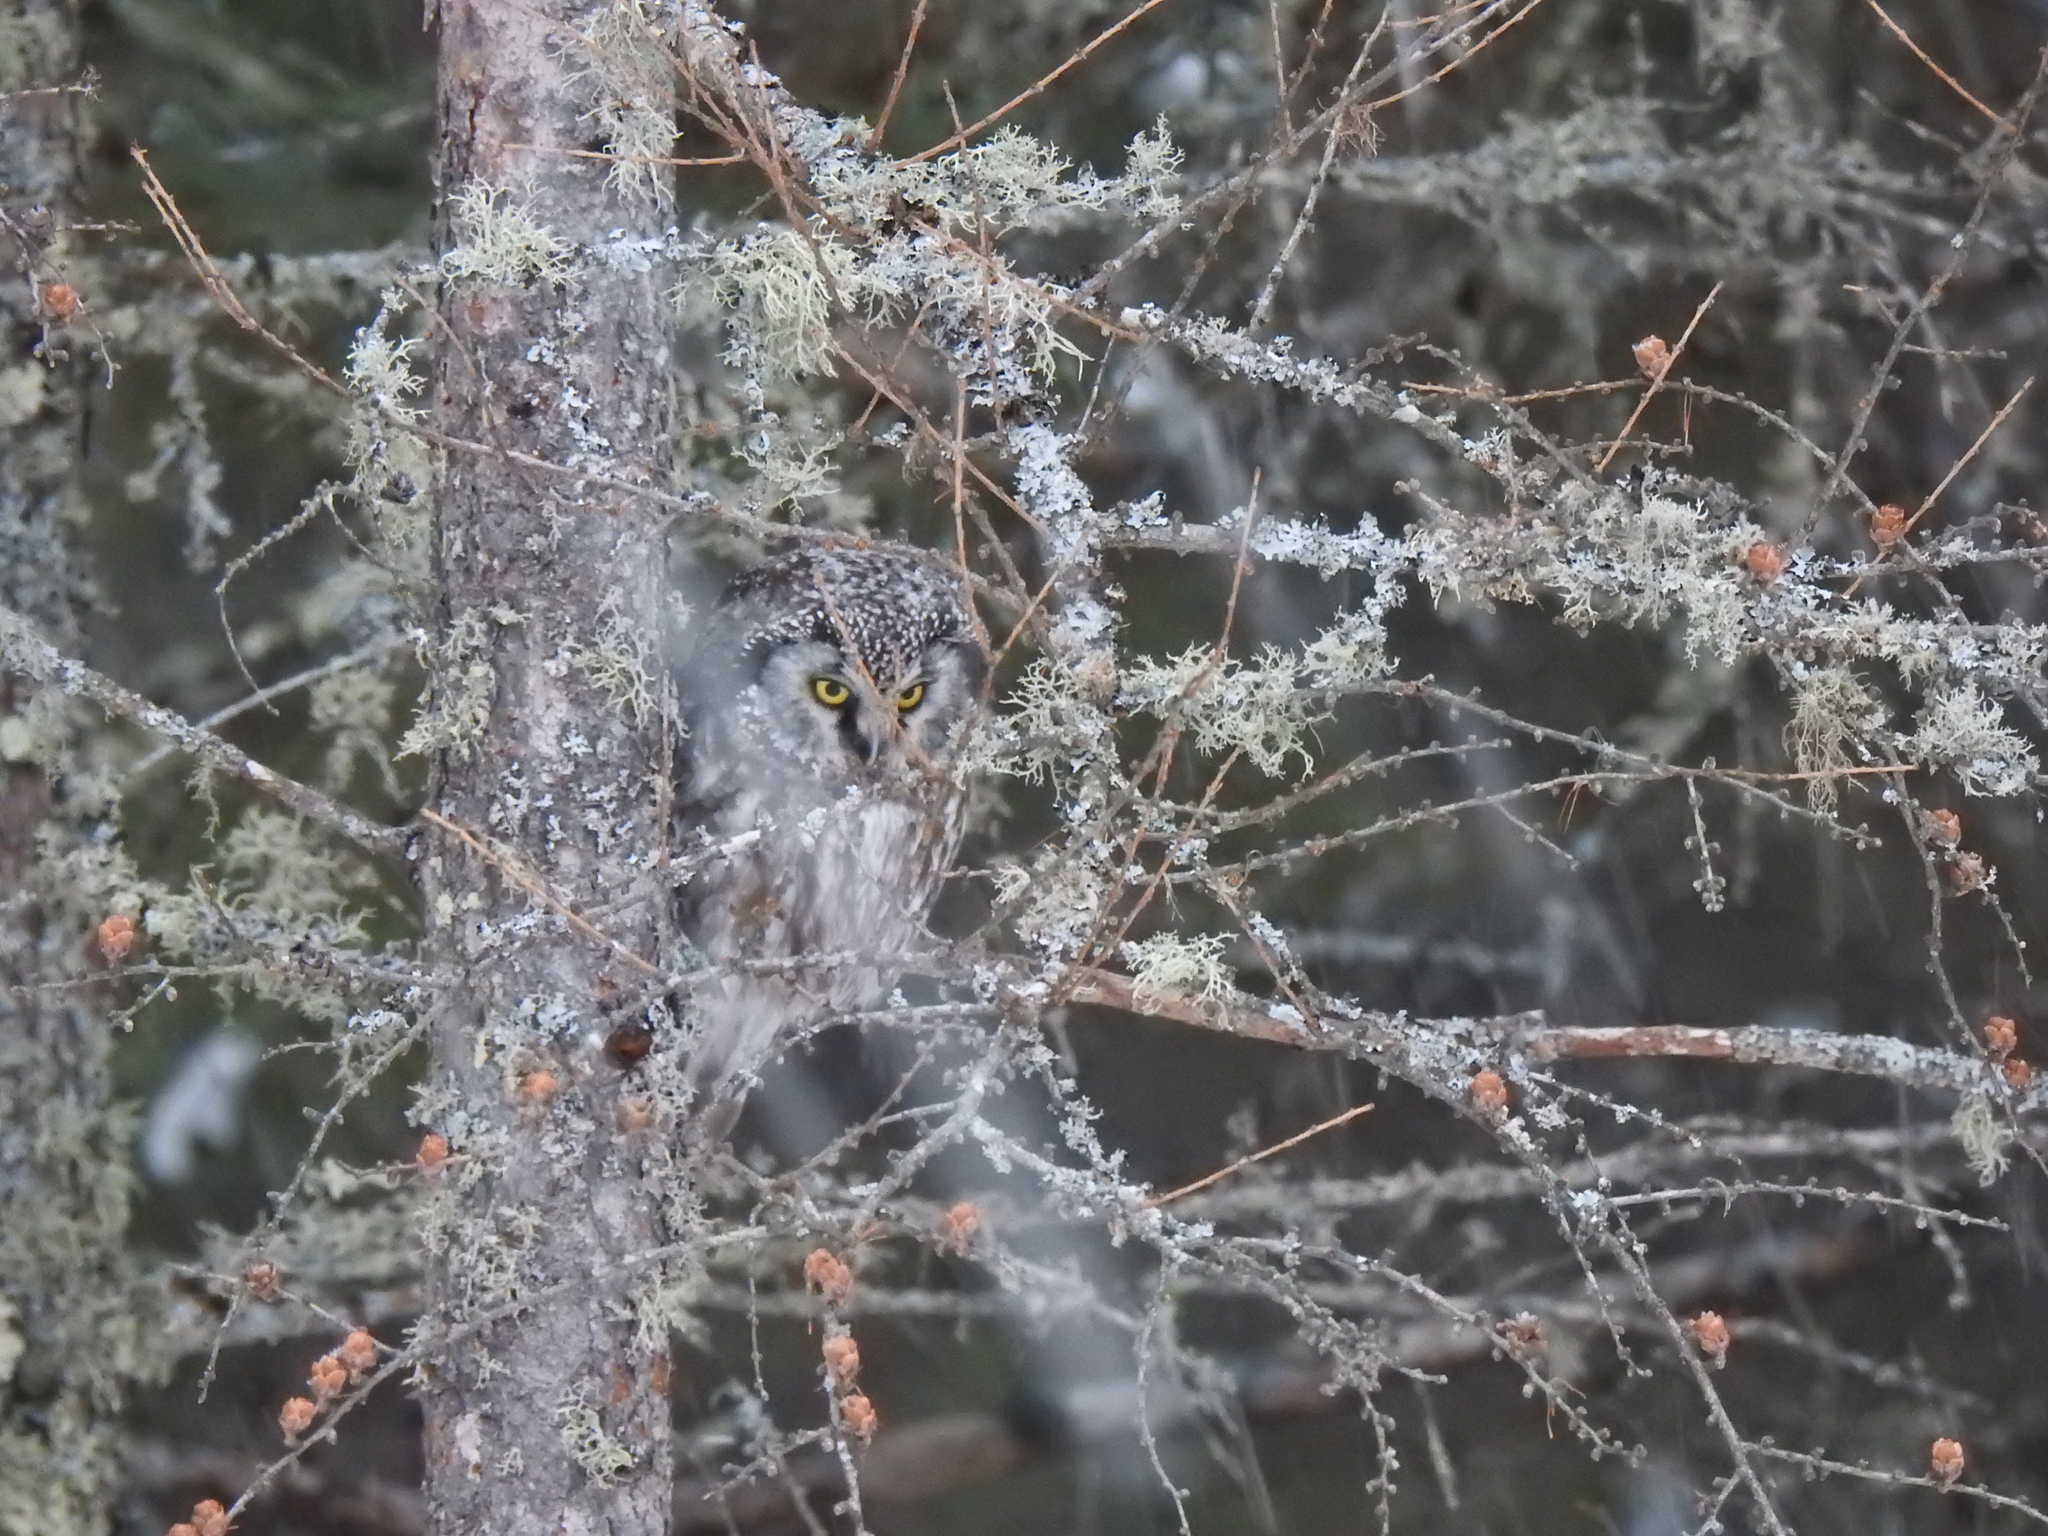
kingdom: Animalia
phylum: Chordata
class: Aves
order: Strigiformes
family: Strigidae
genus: Aegolius
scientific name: Aegolius funereus
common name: Boreal owl
